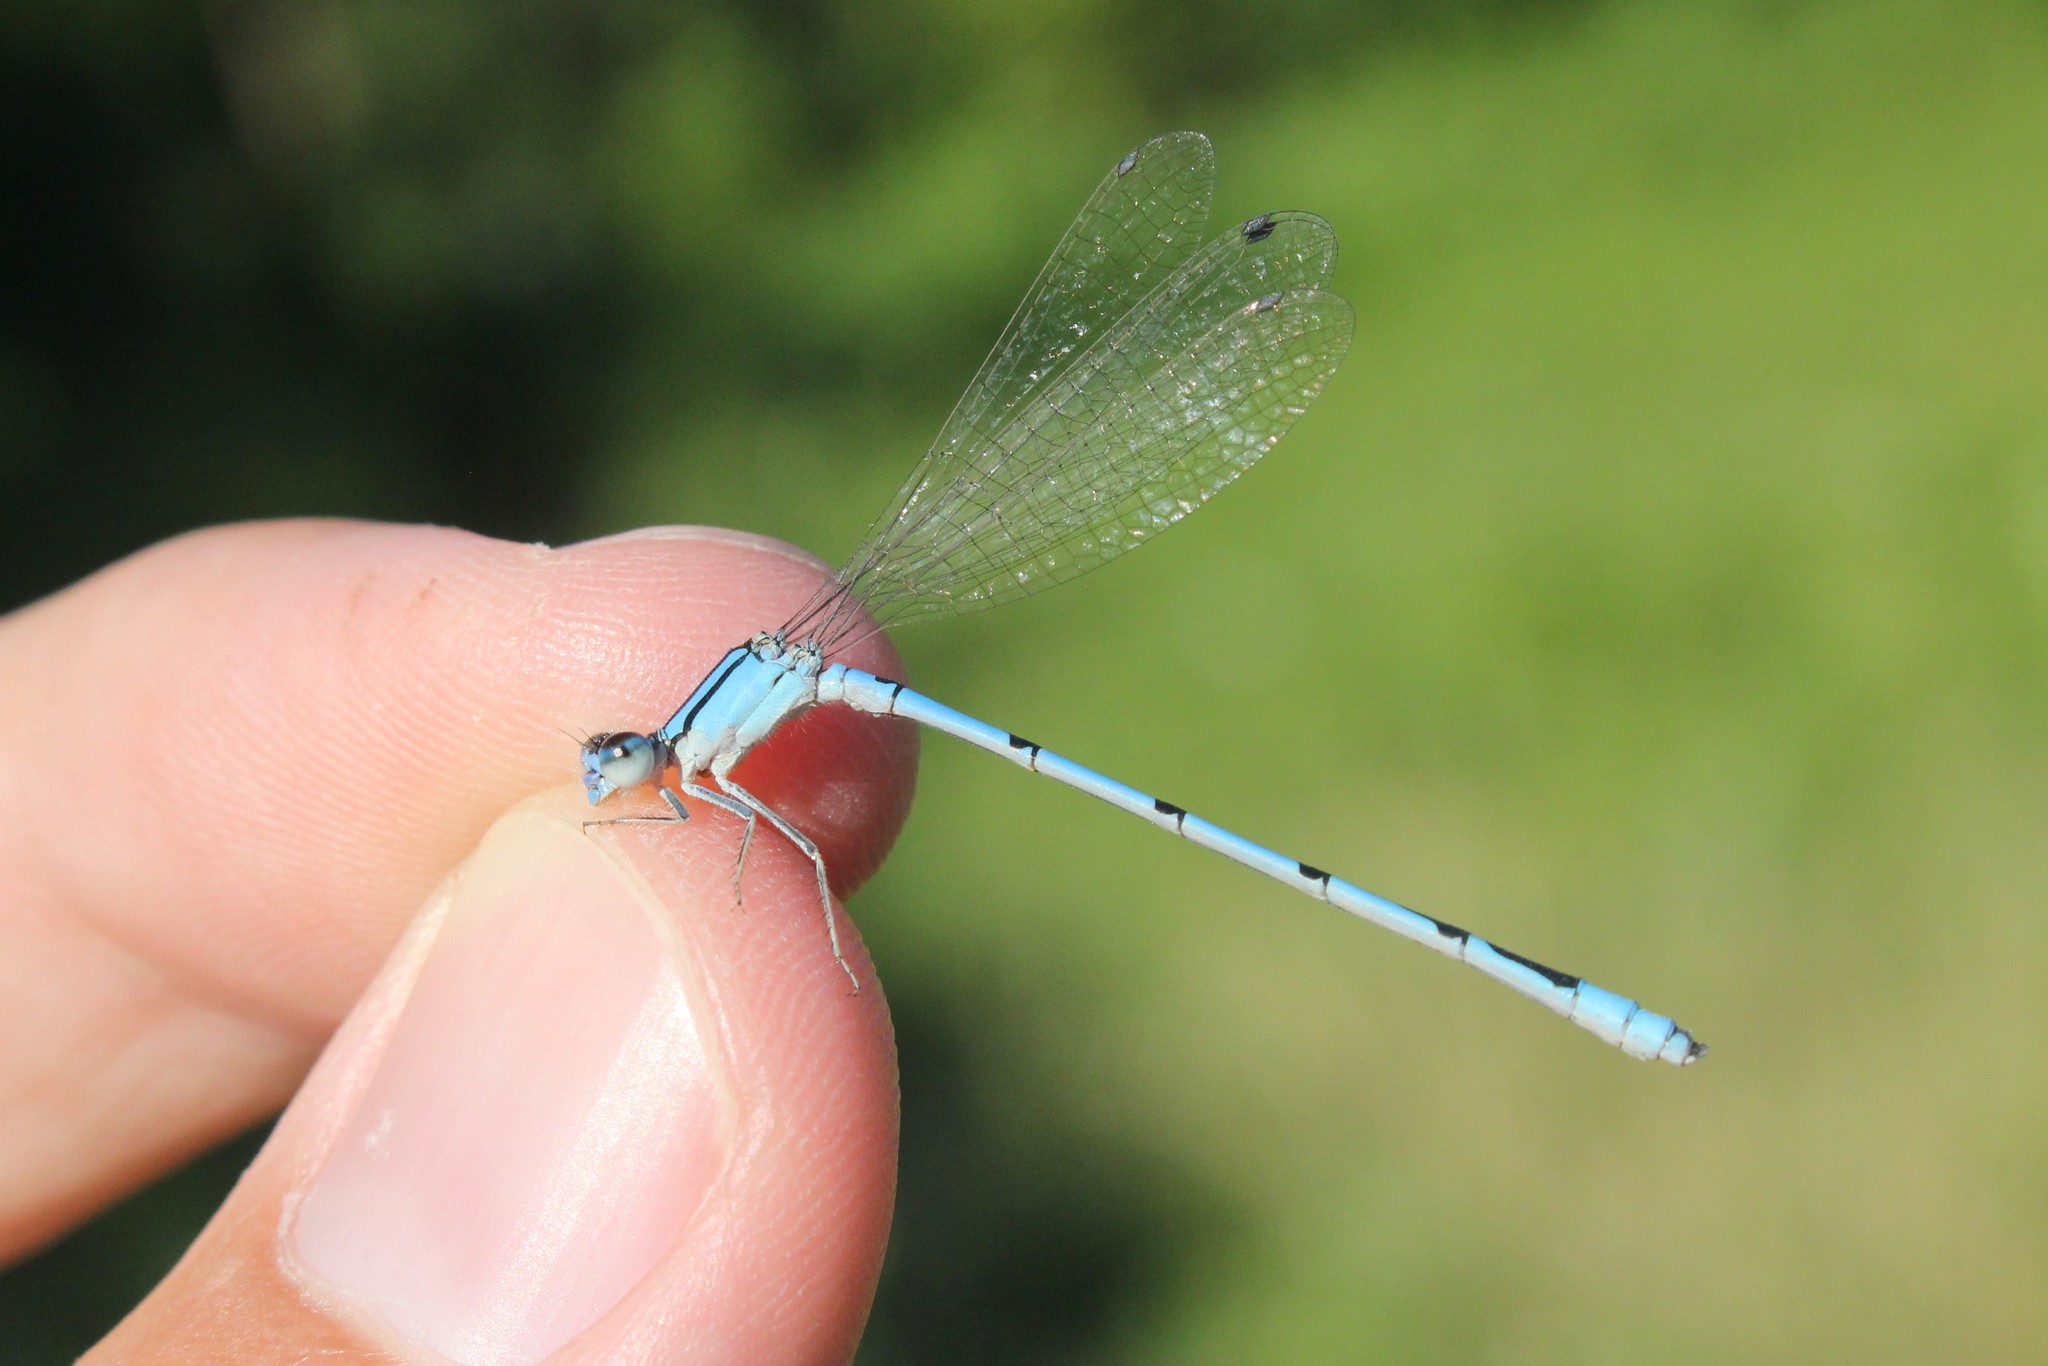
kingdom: Animalia
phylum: Arthropoda
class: Insecta
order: Odonata
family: Coenagrionidae
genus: Enallagma
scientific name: Enallagma civile
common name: Damselfly
